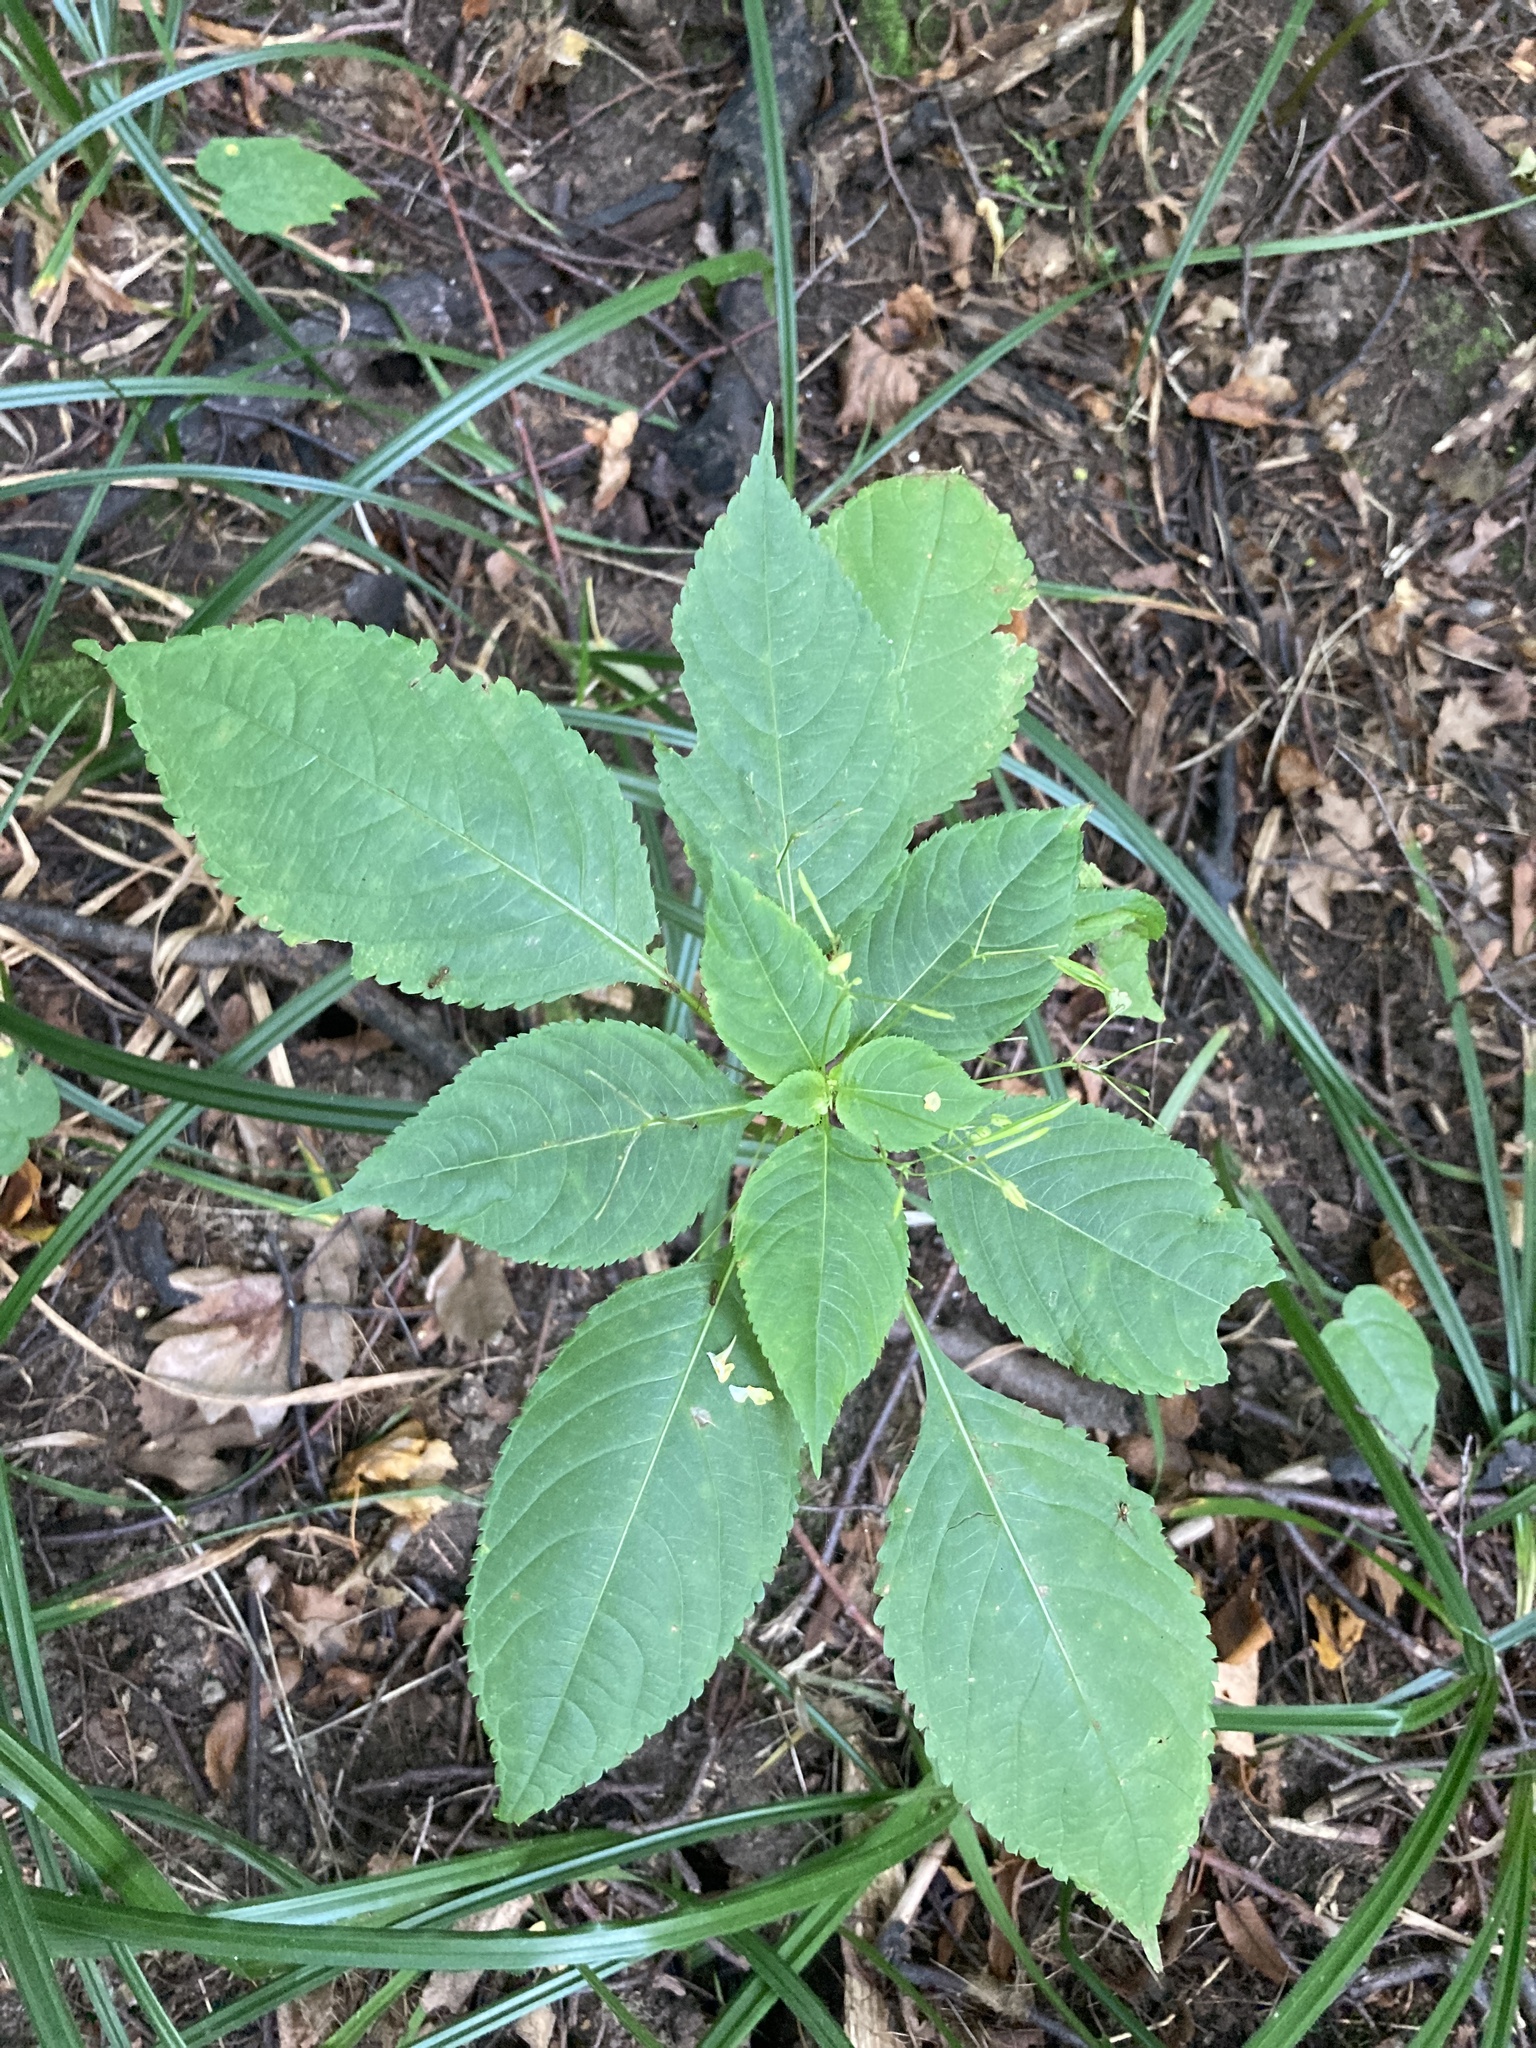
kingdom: Plantae
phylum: Tracheophyta
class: Magnoliopsida
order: Ericales
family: Balsaminaceae
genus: Impatiens
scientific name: Impatiens parviflora
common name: Small balsam
